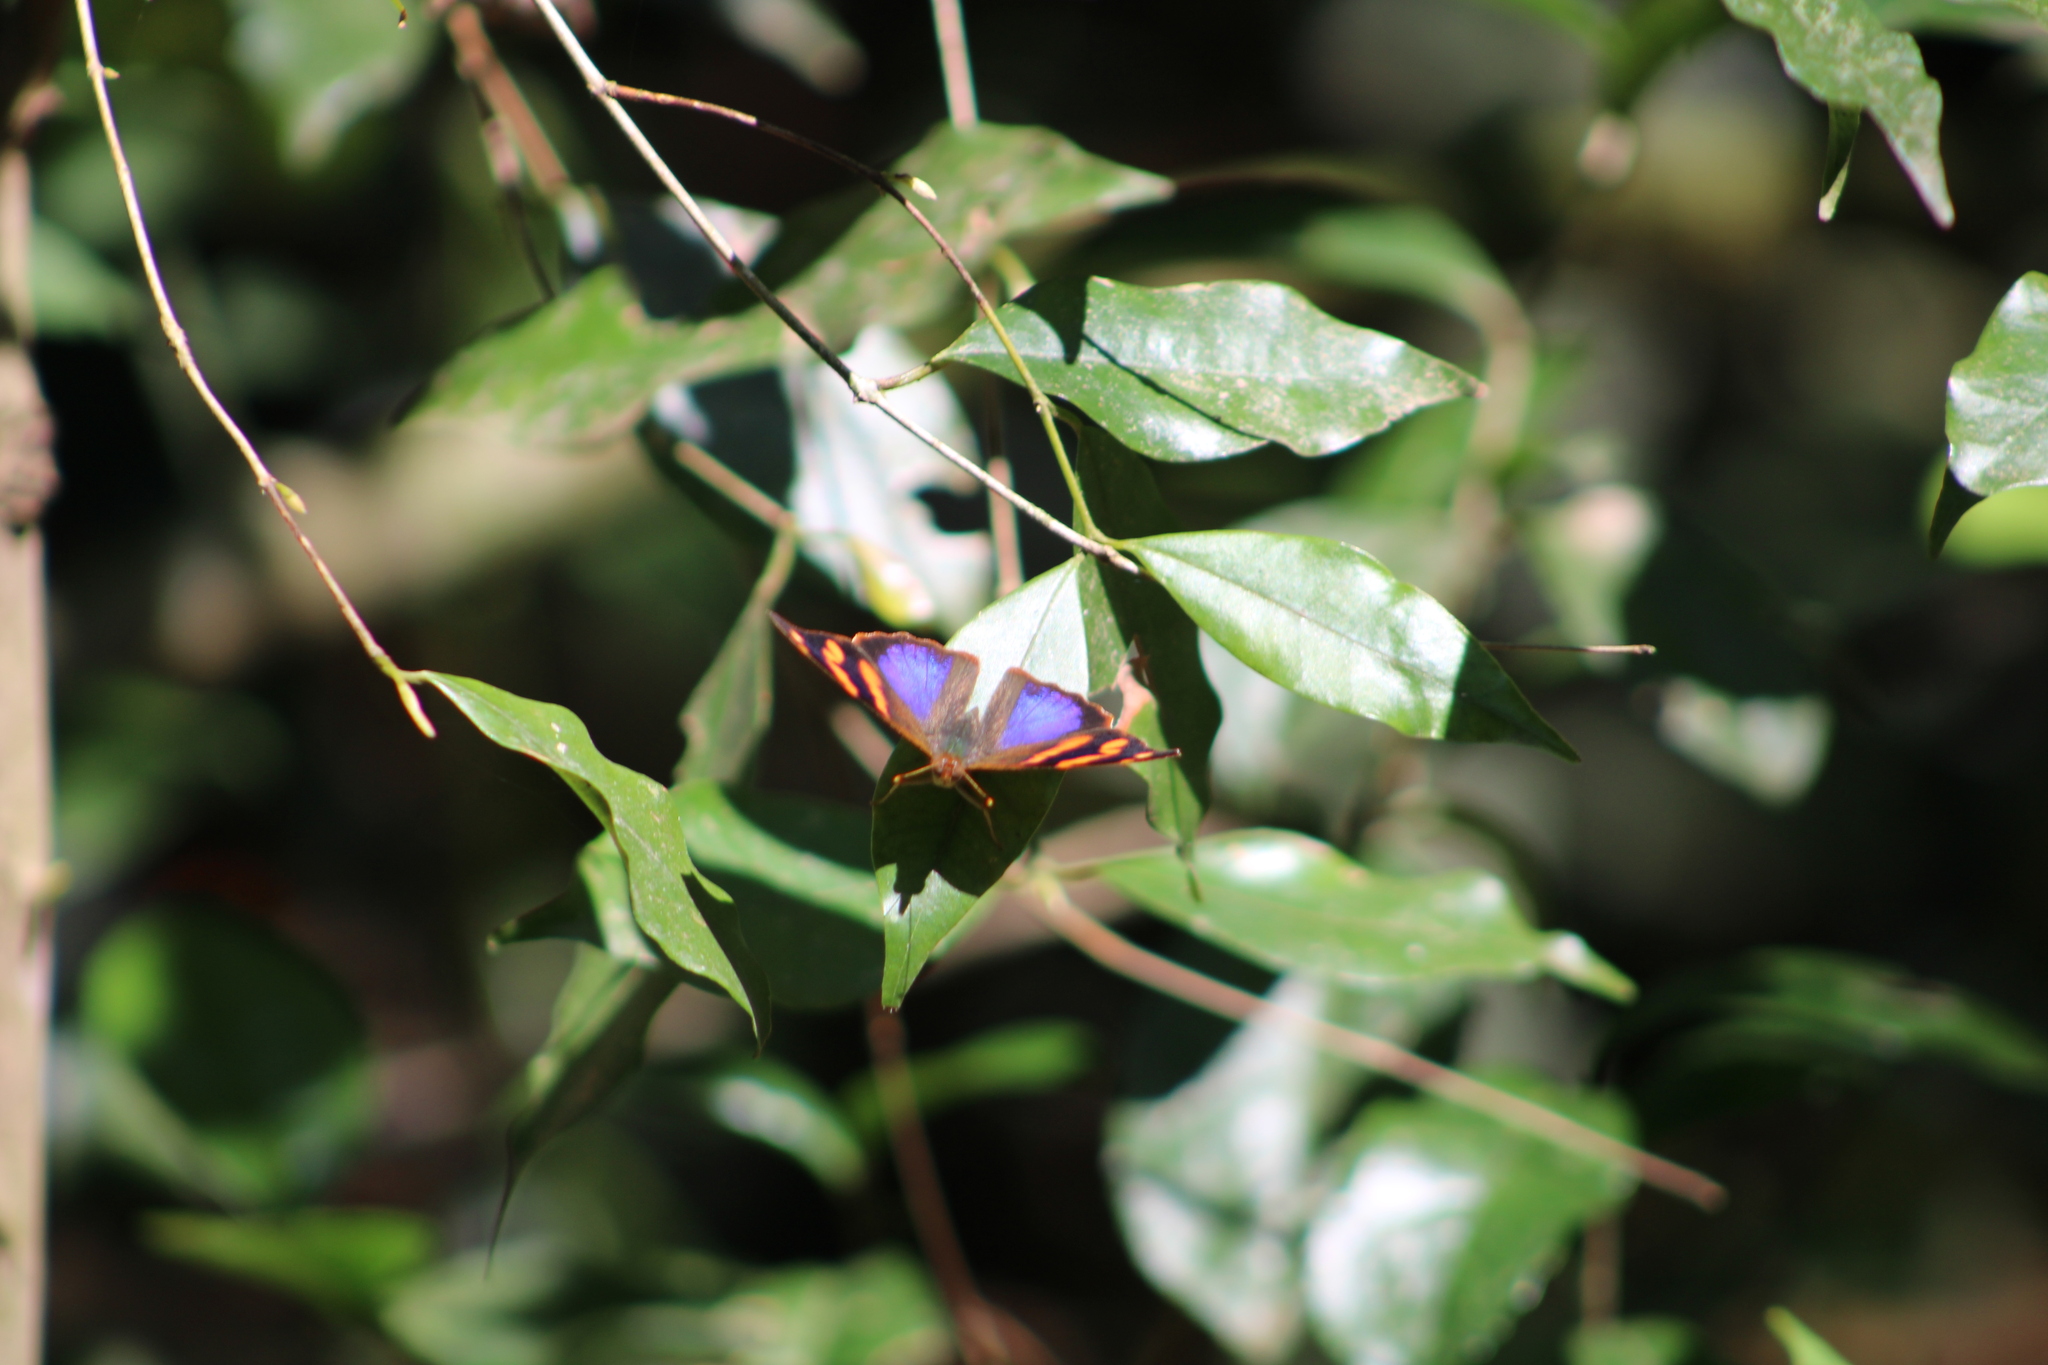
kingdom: Animalia
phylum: Arthropoda
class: Insecta
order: Lepidoptera
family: Nymphalidae
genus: Epiphile
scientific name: Epiphile orea
